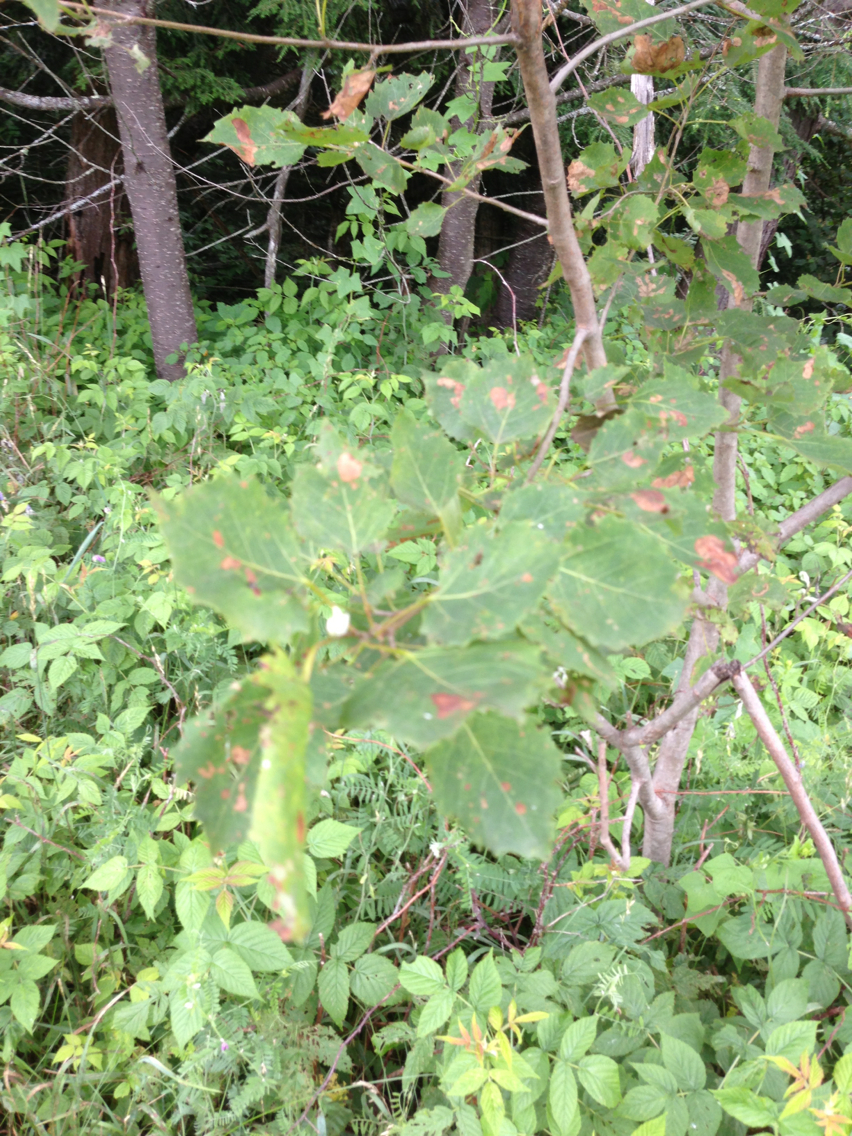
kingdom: Plantae
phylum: Tracheophyta
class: Magnoliopsida
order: Malpighiales
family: Salicaceae
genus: Populus
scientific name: Populus grandidentata
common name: Bigtooth aspen
